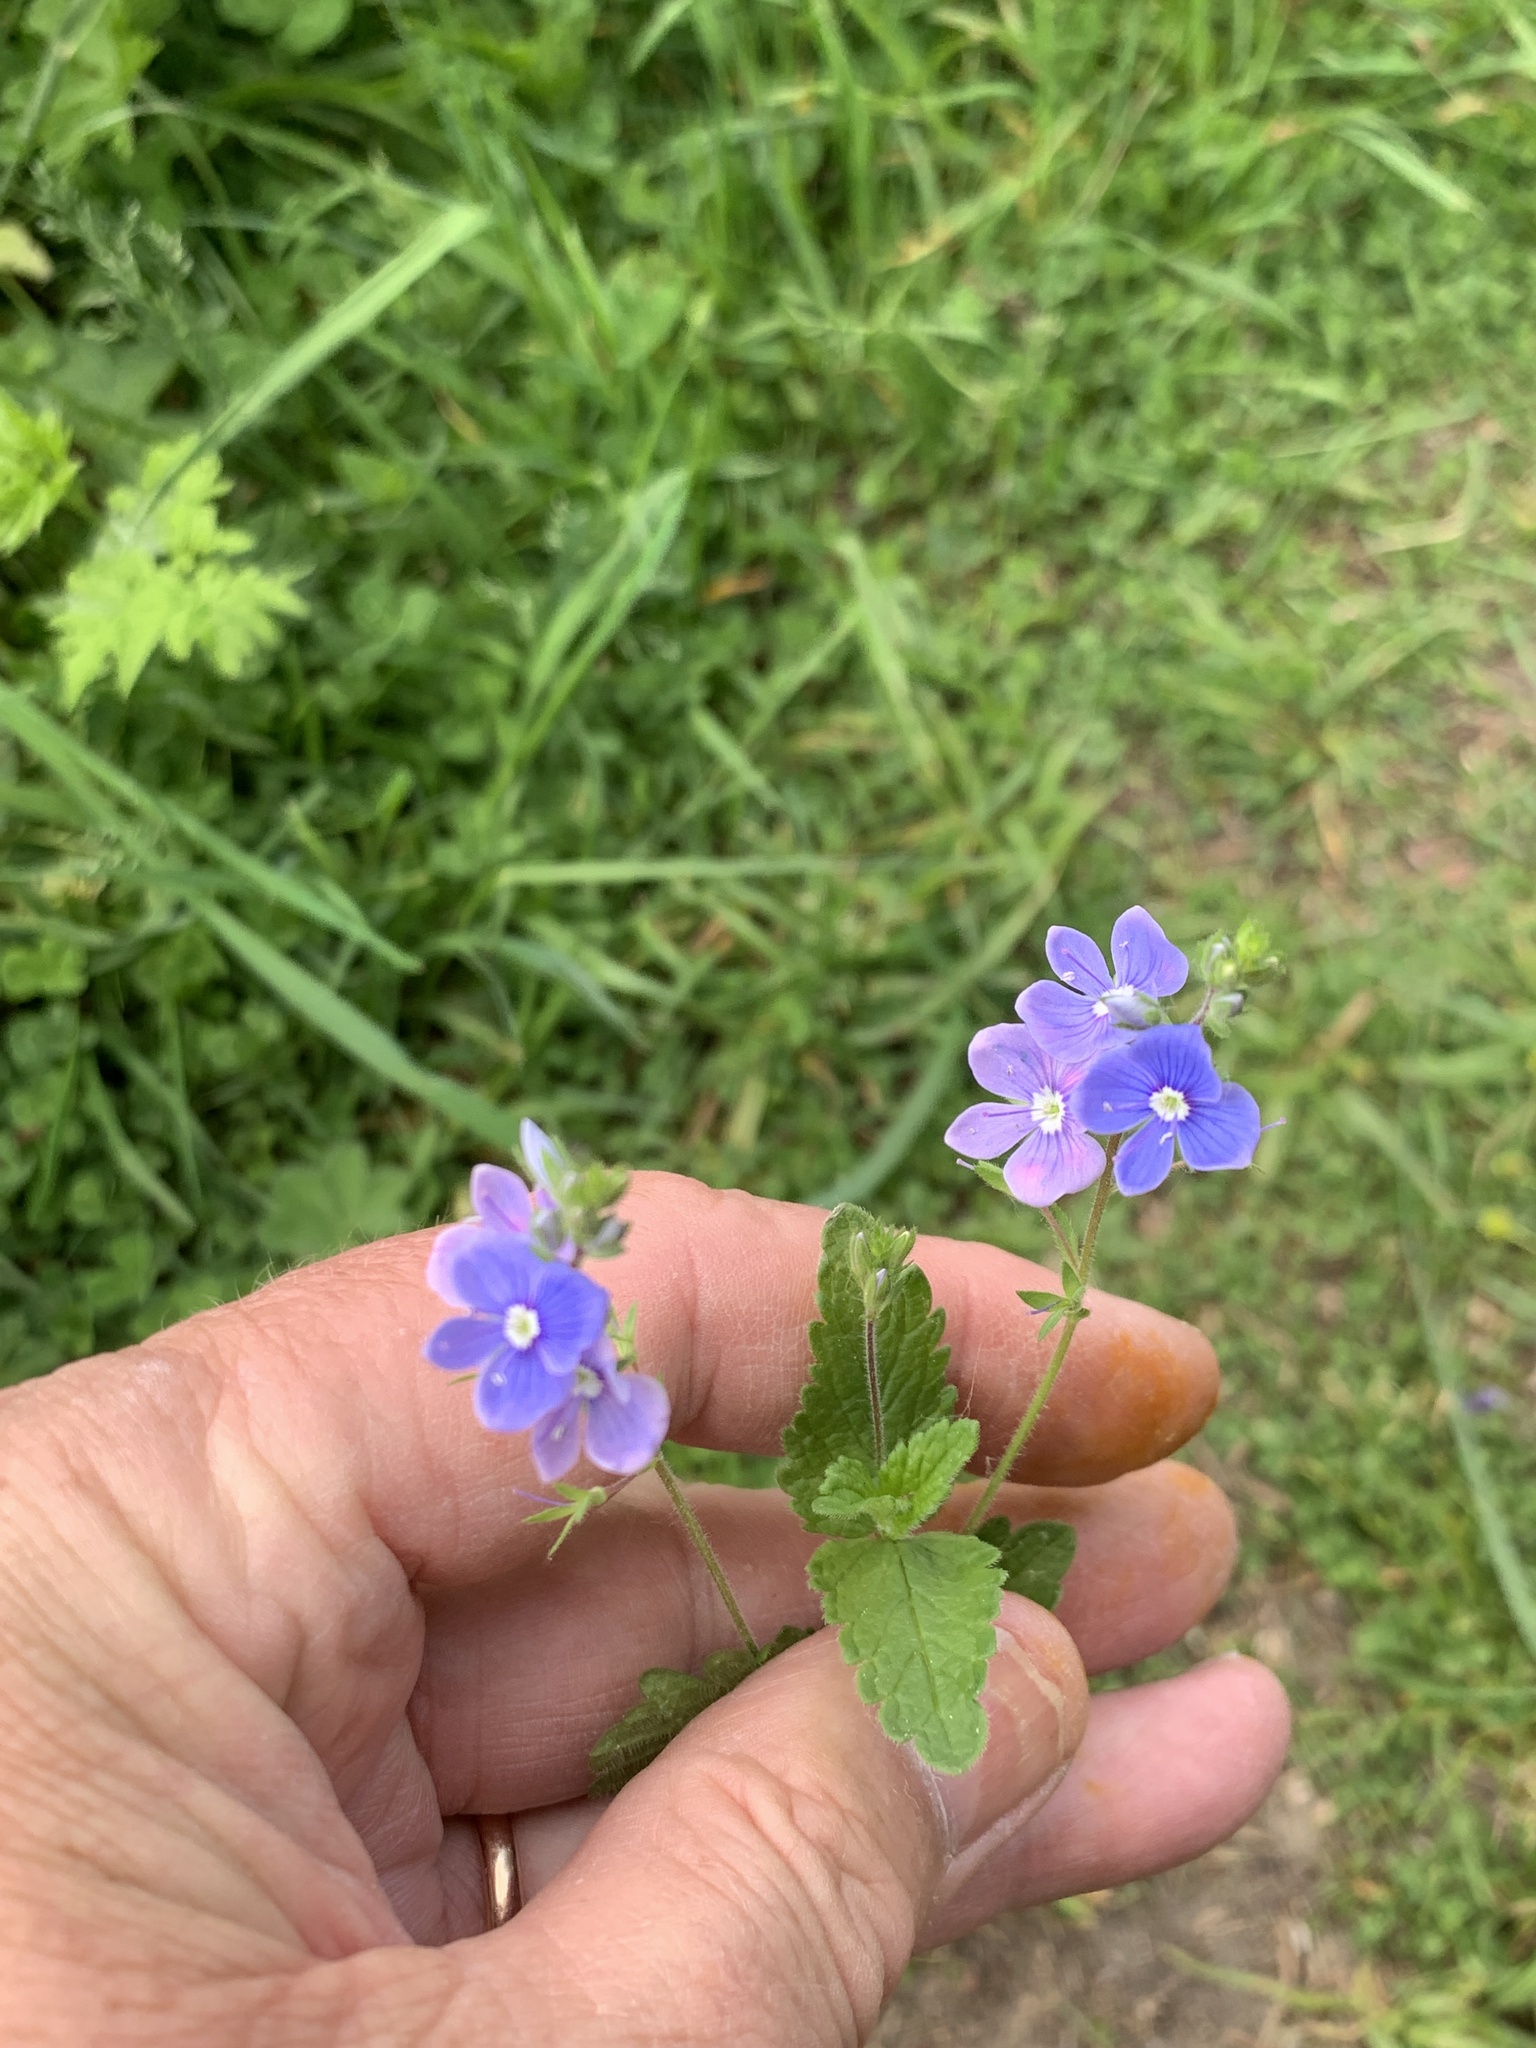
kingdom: Plantae
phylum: Tracheophyta
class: Magnoliopsida
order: Lamiales
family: Plantaginaceae
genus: Veronica
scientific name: Veronica chamaedrys
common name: Germander speedwell
